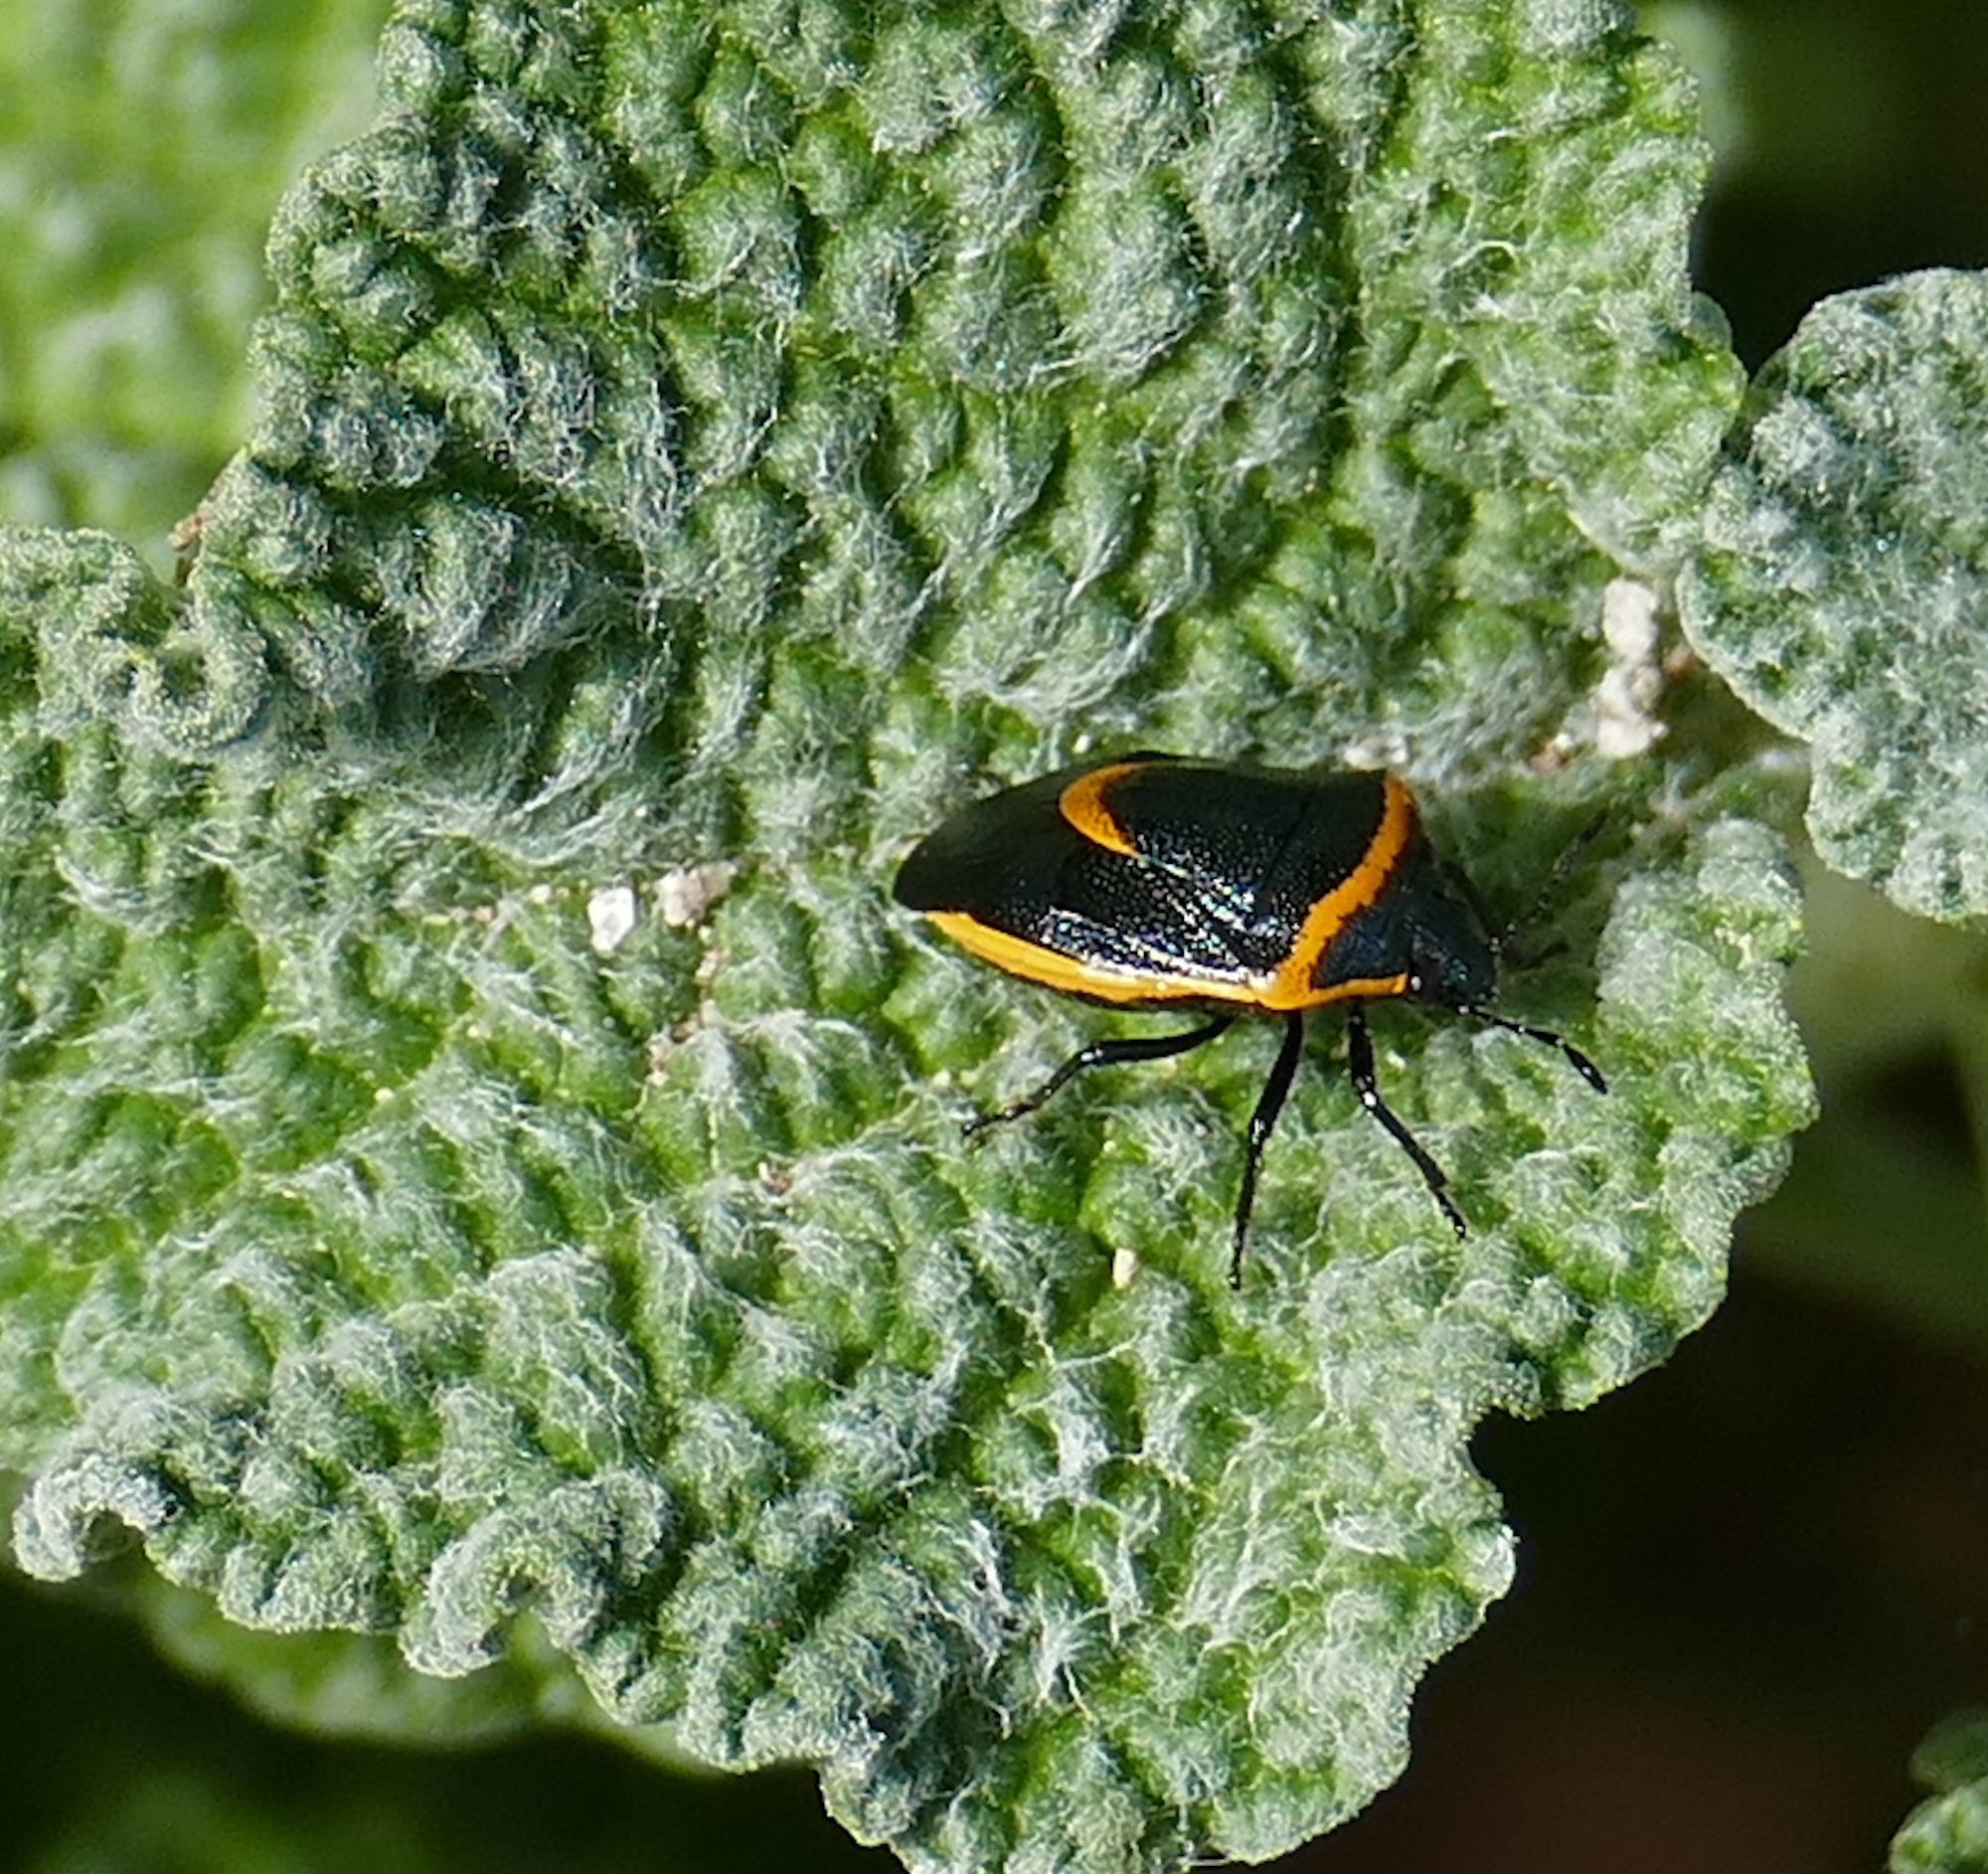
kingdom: Animalia
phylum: Arthropoda
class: Insecta
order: Hemiptera
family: Pentatomidae
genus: Cosmopepla
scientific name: Cosmopepla decorata
